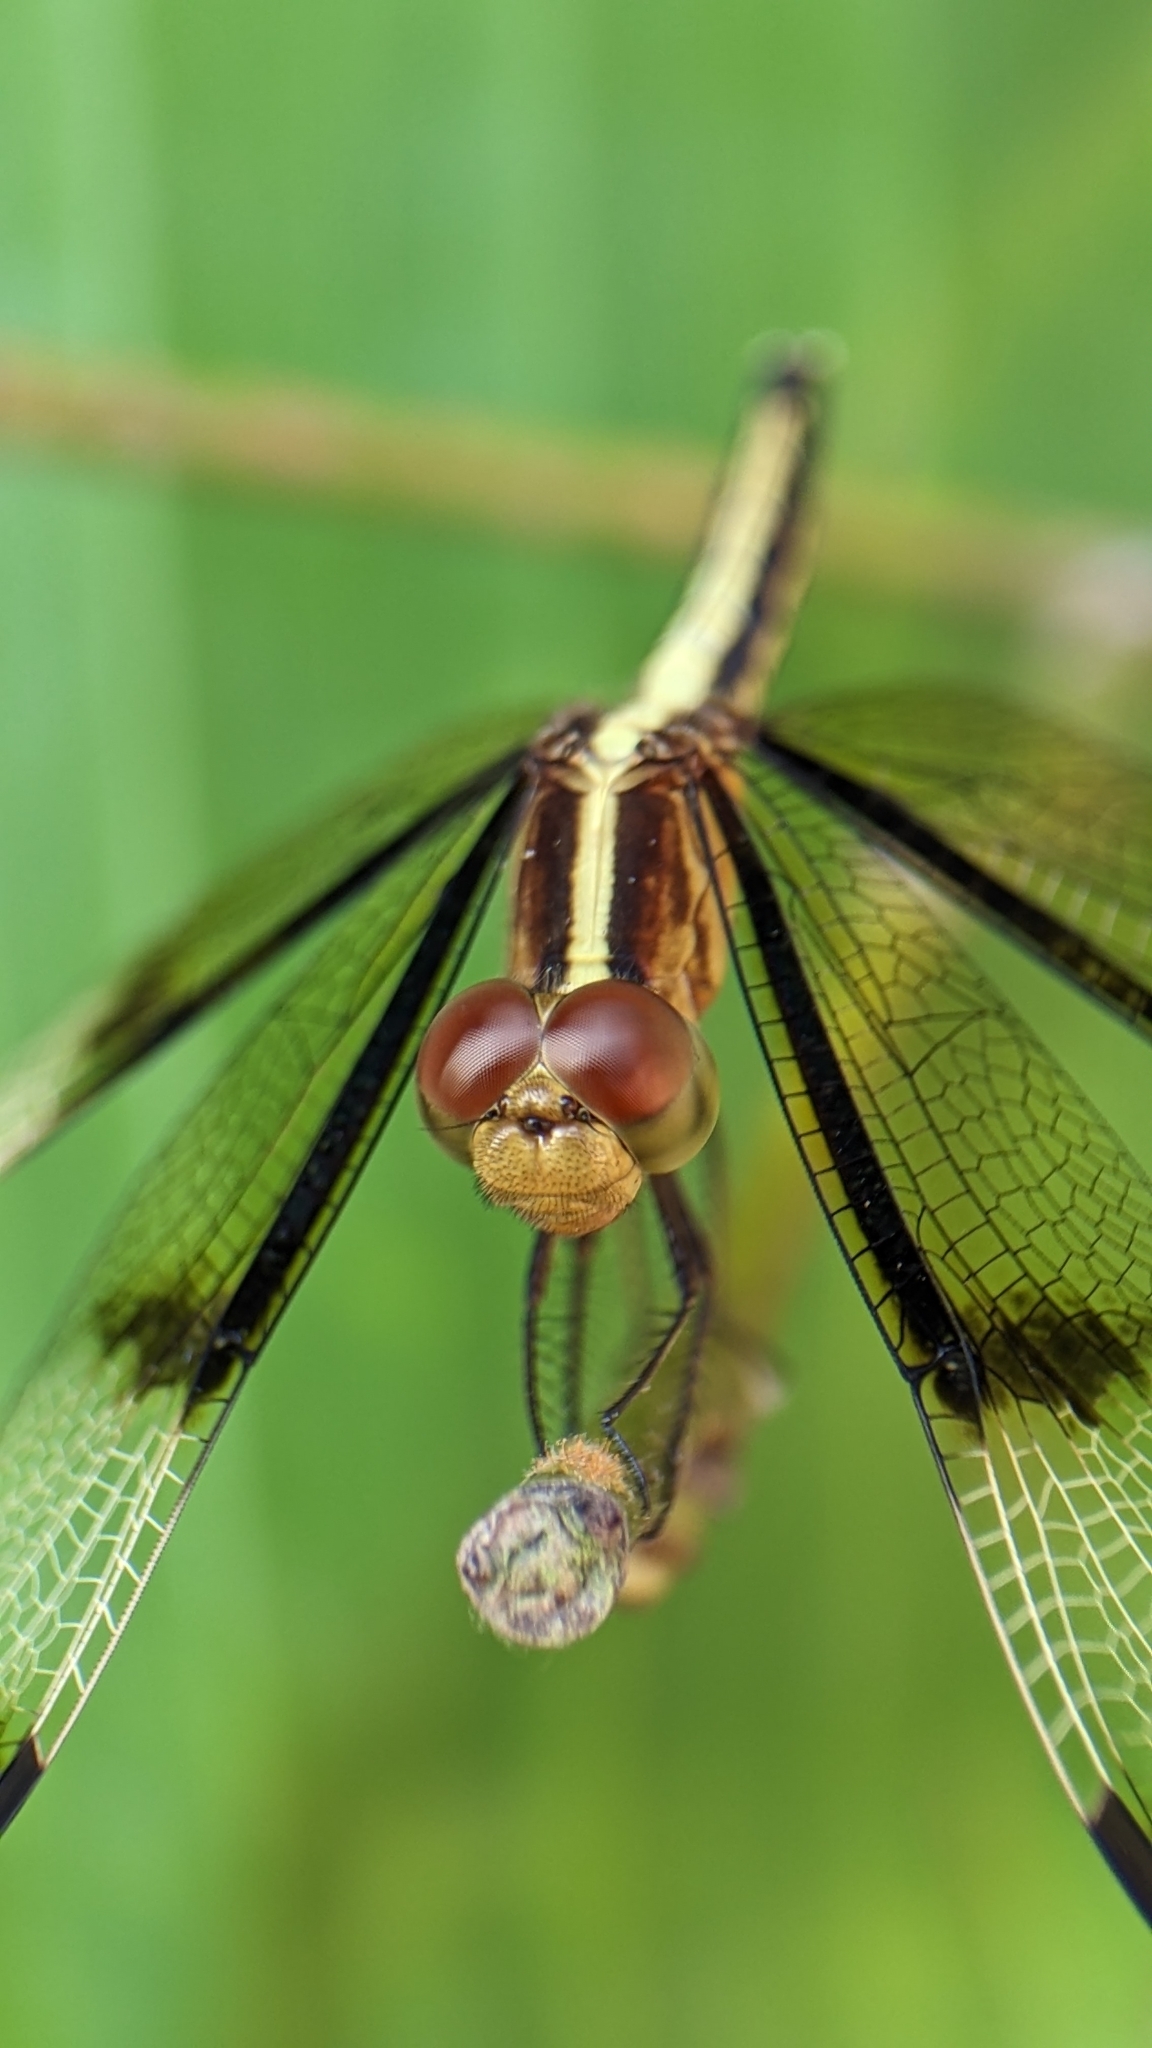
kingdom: Animalia
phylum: Arthropoda
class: Insecta
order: Odonata
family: Libellulidae
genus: Neurothemis
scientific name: Neurothemis tullia
